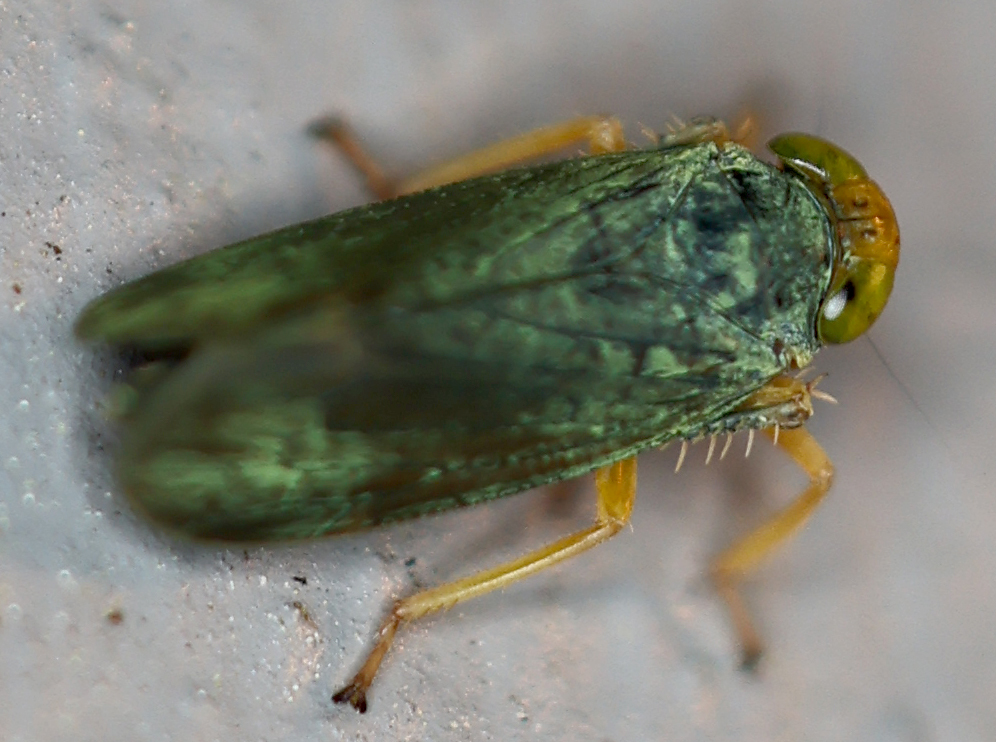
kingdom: Animalia
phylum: Arthropoda
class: Insecta
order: Hemiptera
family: Cicadellidae
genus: Jikradia
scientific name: Jikradia olitoria
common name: Coppery leafhopper
